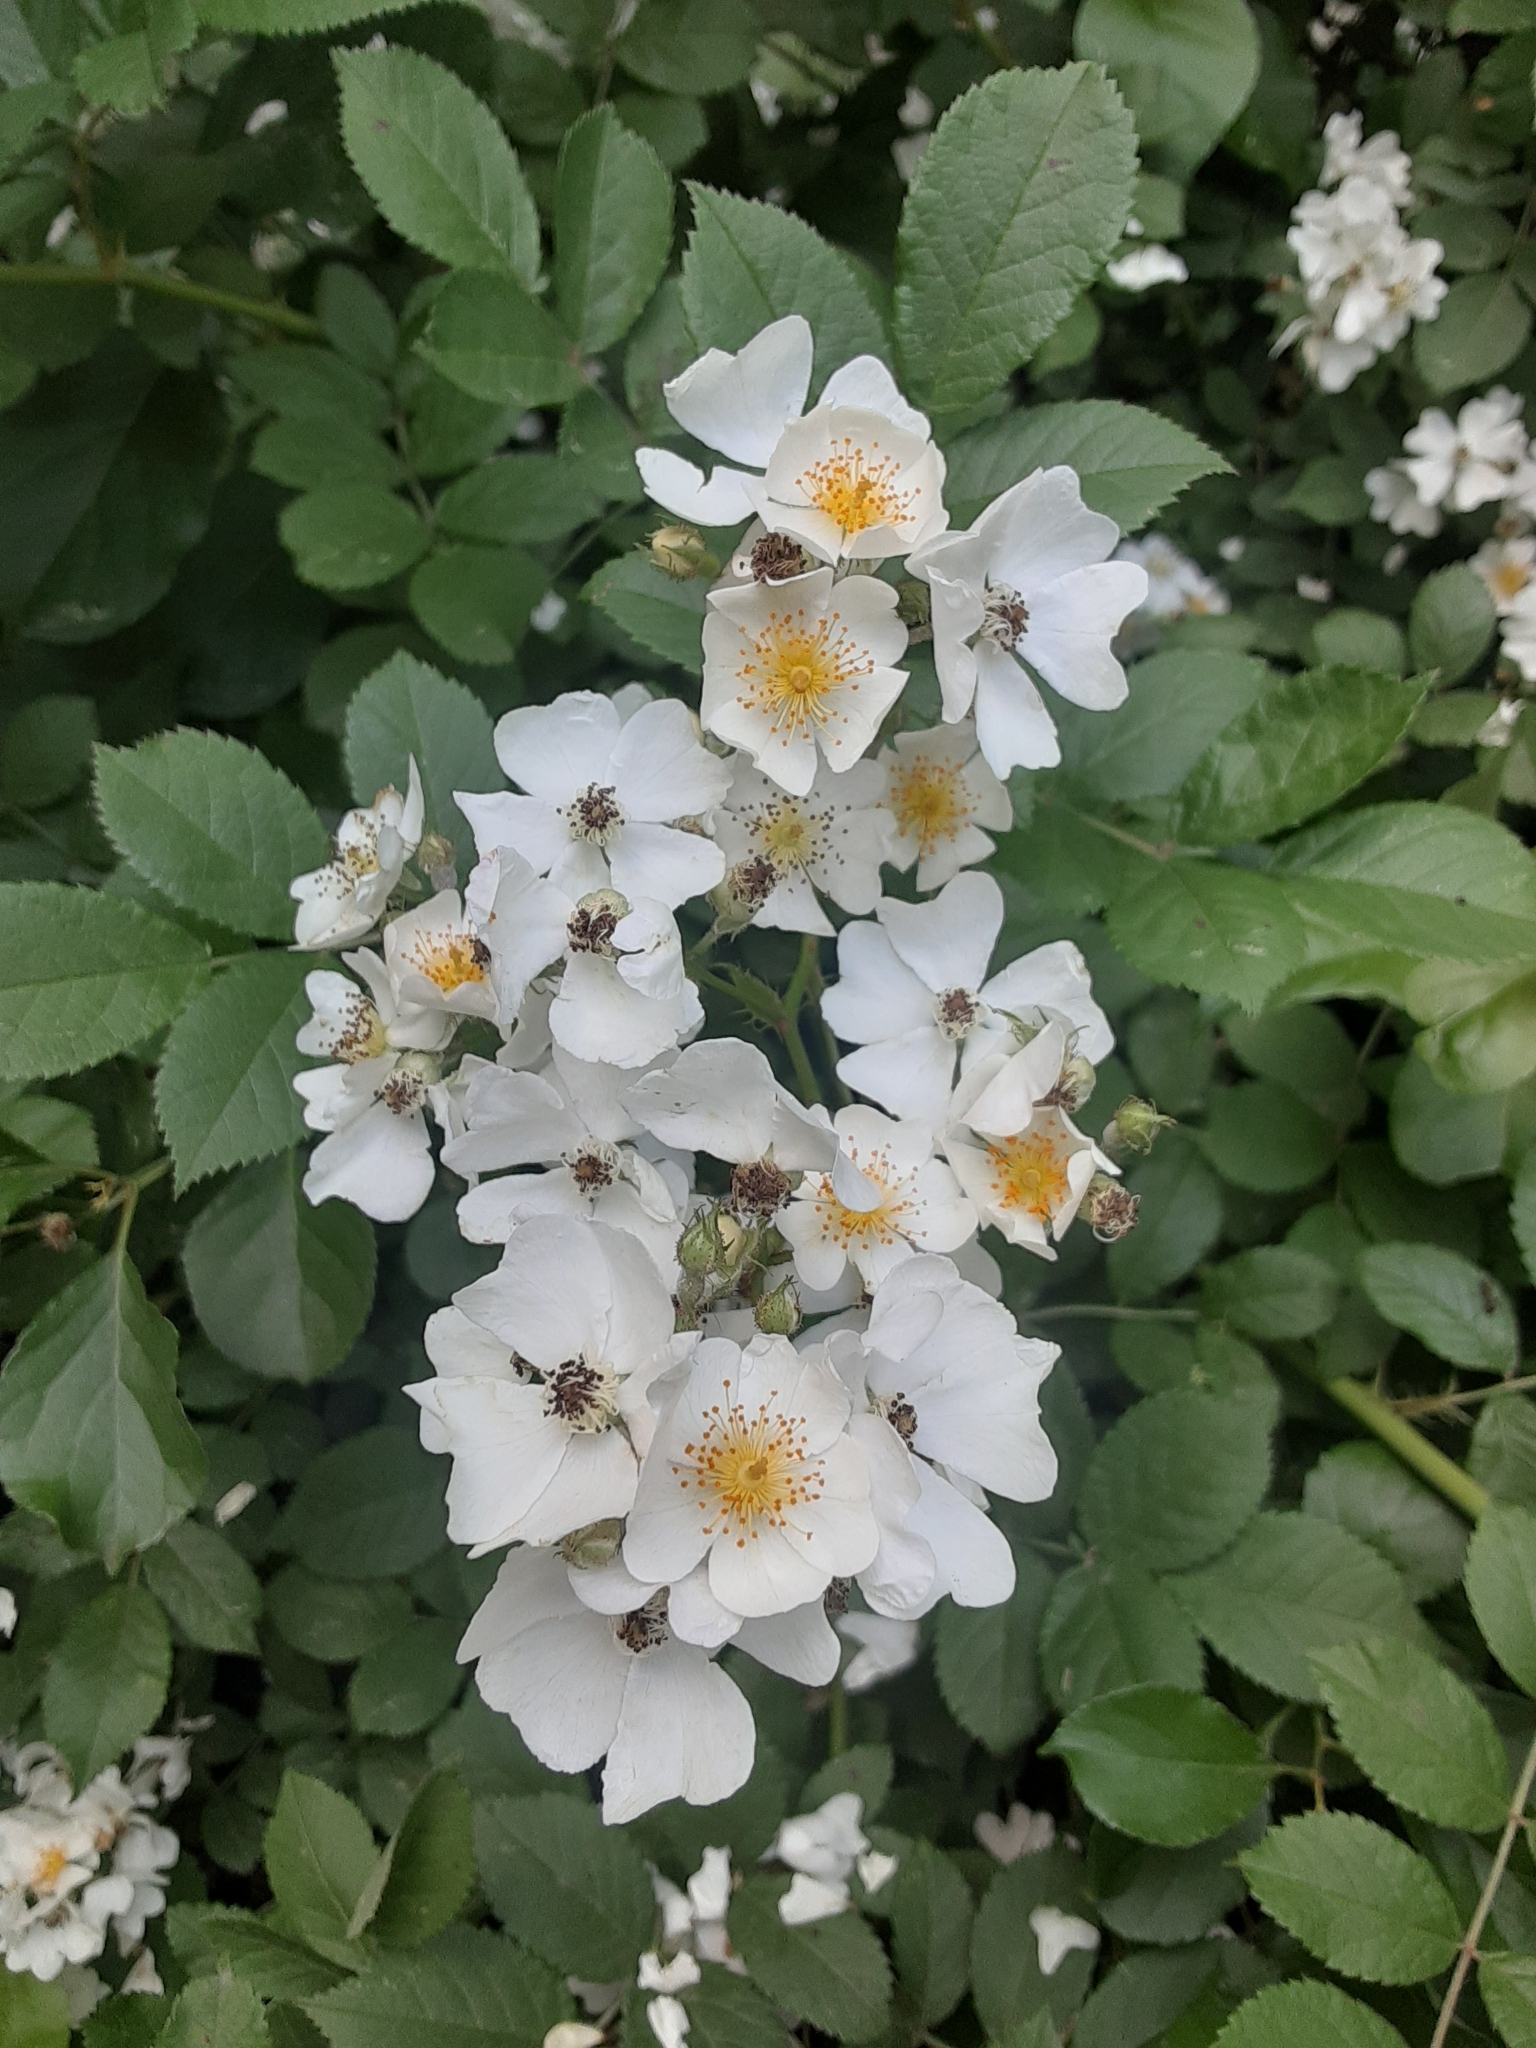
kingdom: Plantae
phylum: Tracheophyta
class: Magnoliopsida
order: Rosales
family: Rosaceae
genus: Rosa
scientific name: Rosa multiflora
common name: Multiflora rose
